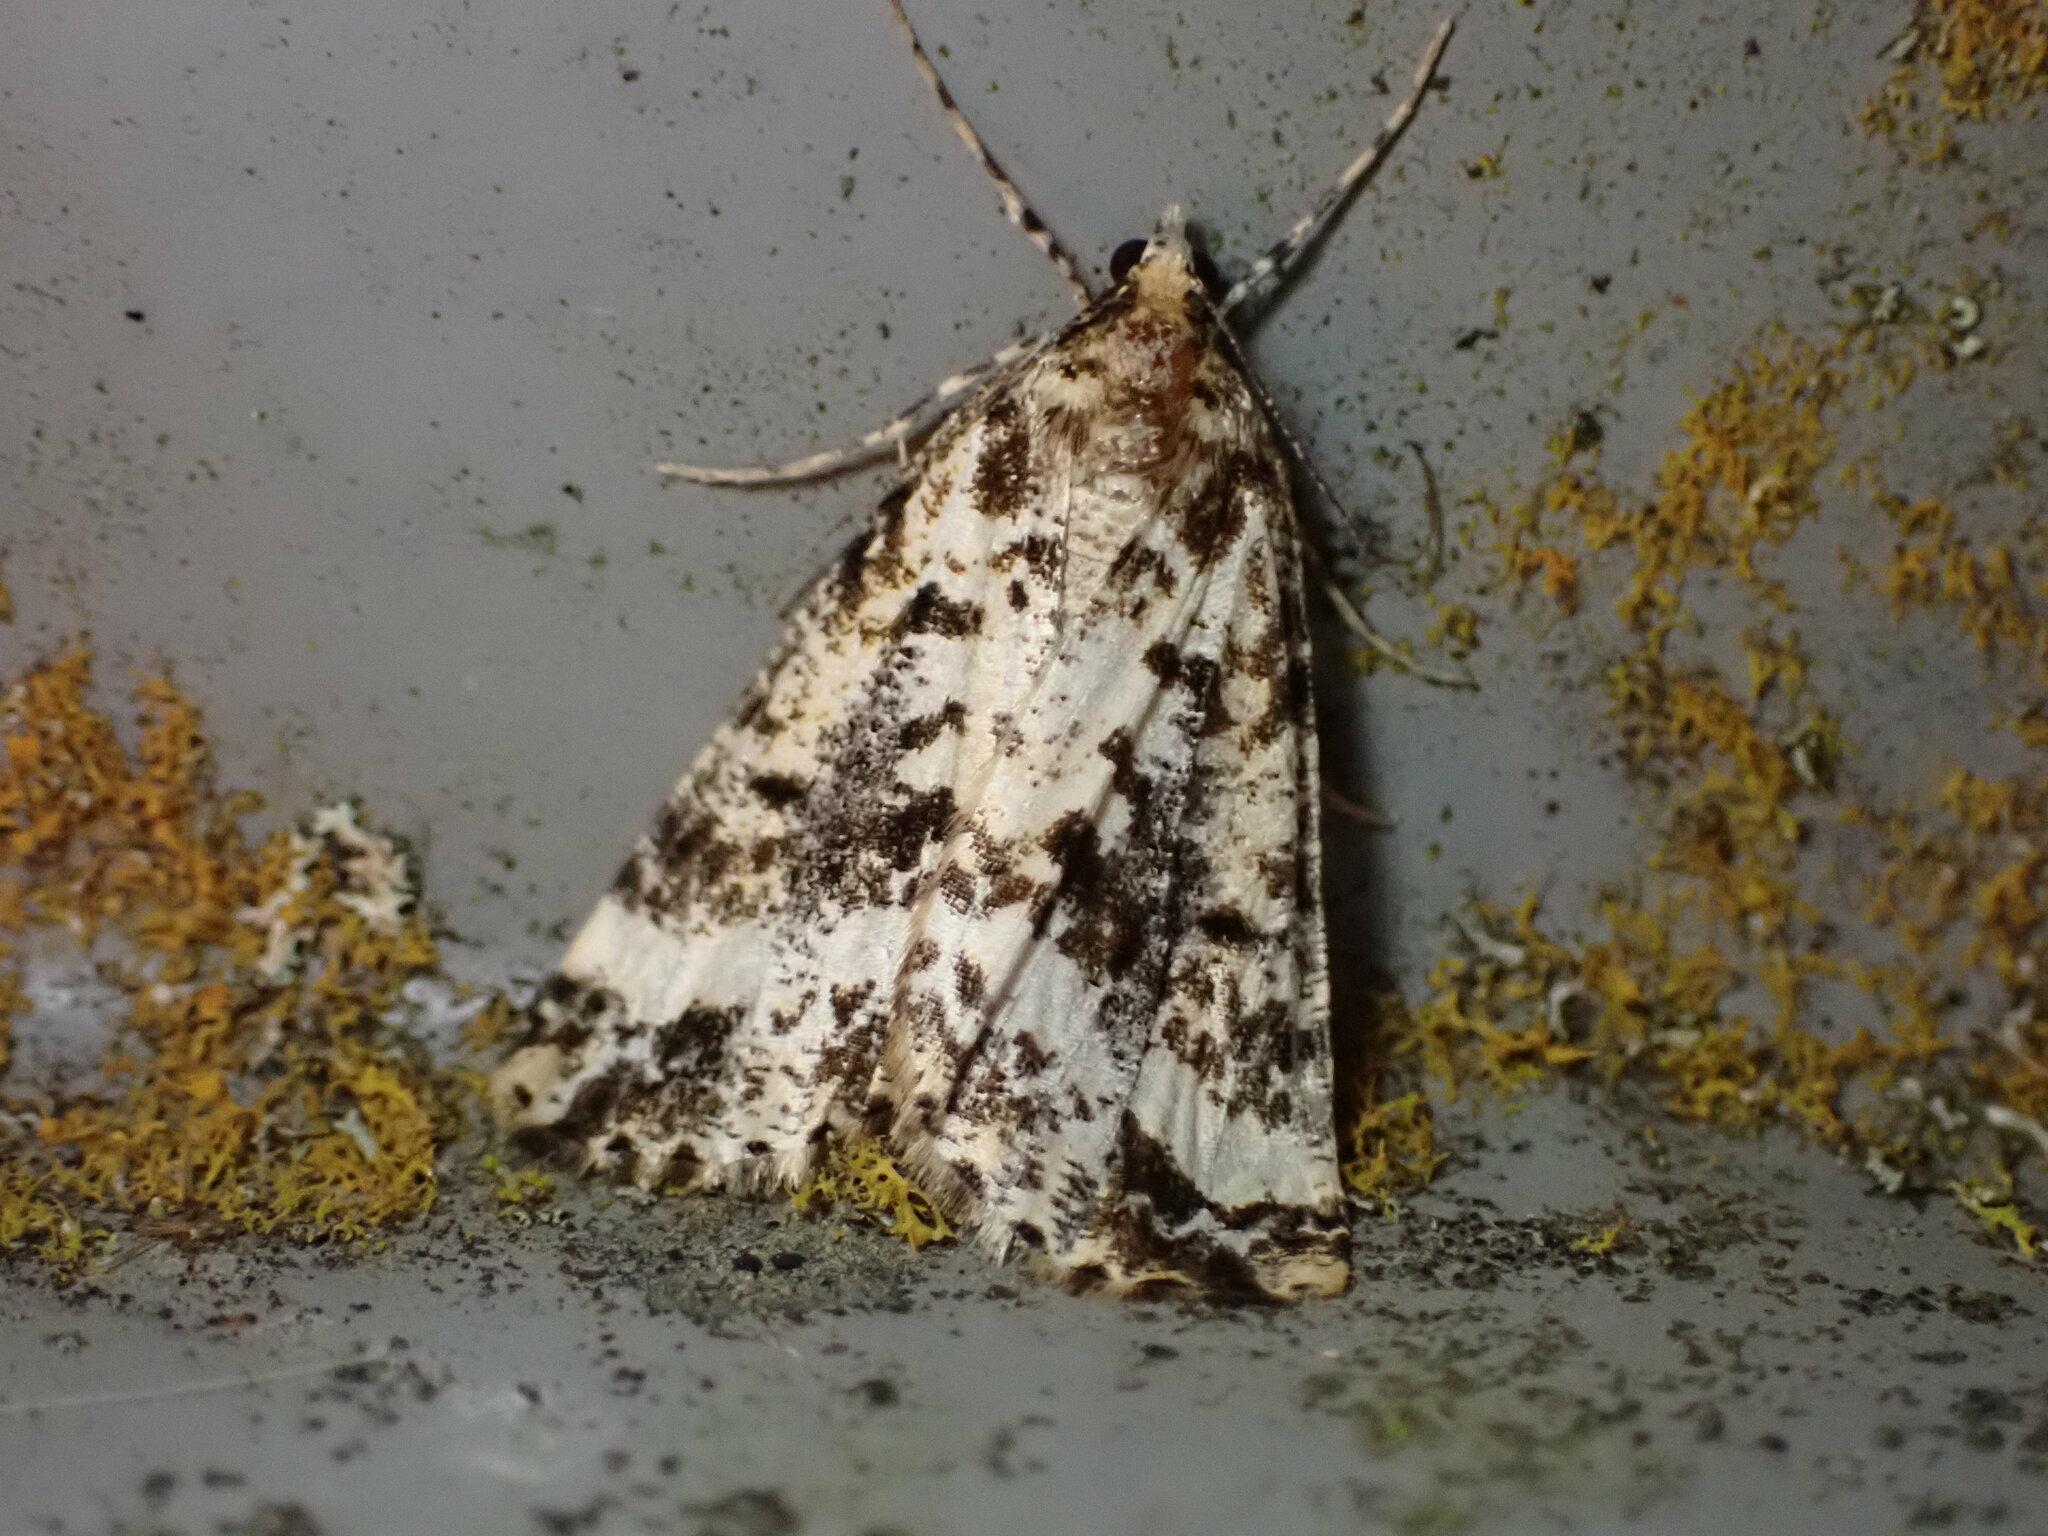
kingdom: Animalia
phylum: Arthropoda
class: Insecta
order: Lepidoptera
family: Geometridae
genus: Pseudocoremia
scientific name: Pseudocoremia leucelaea
